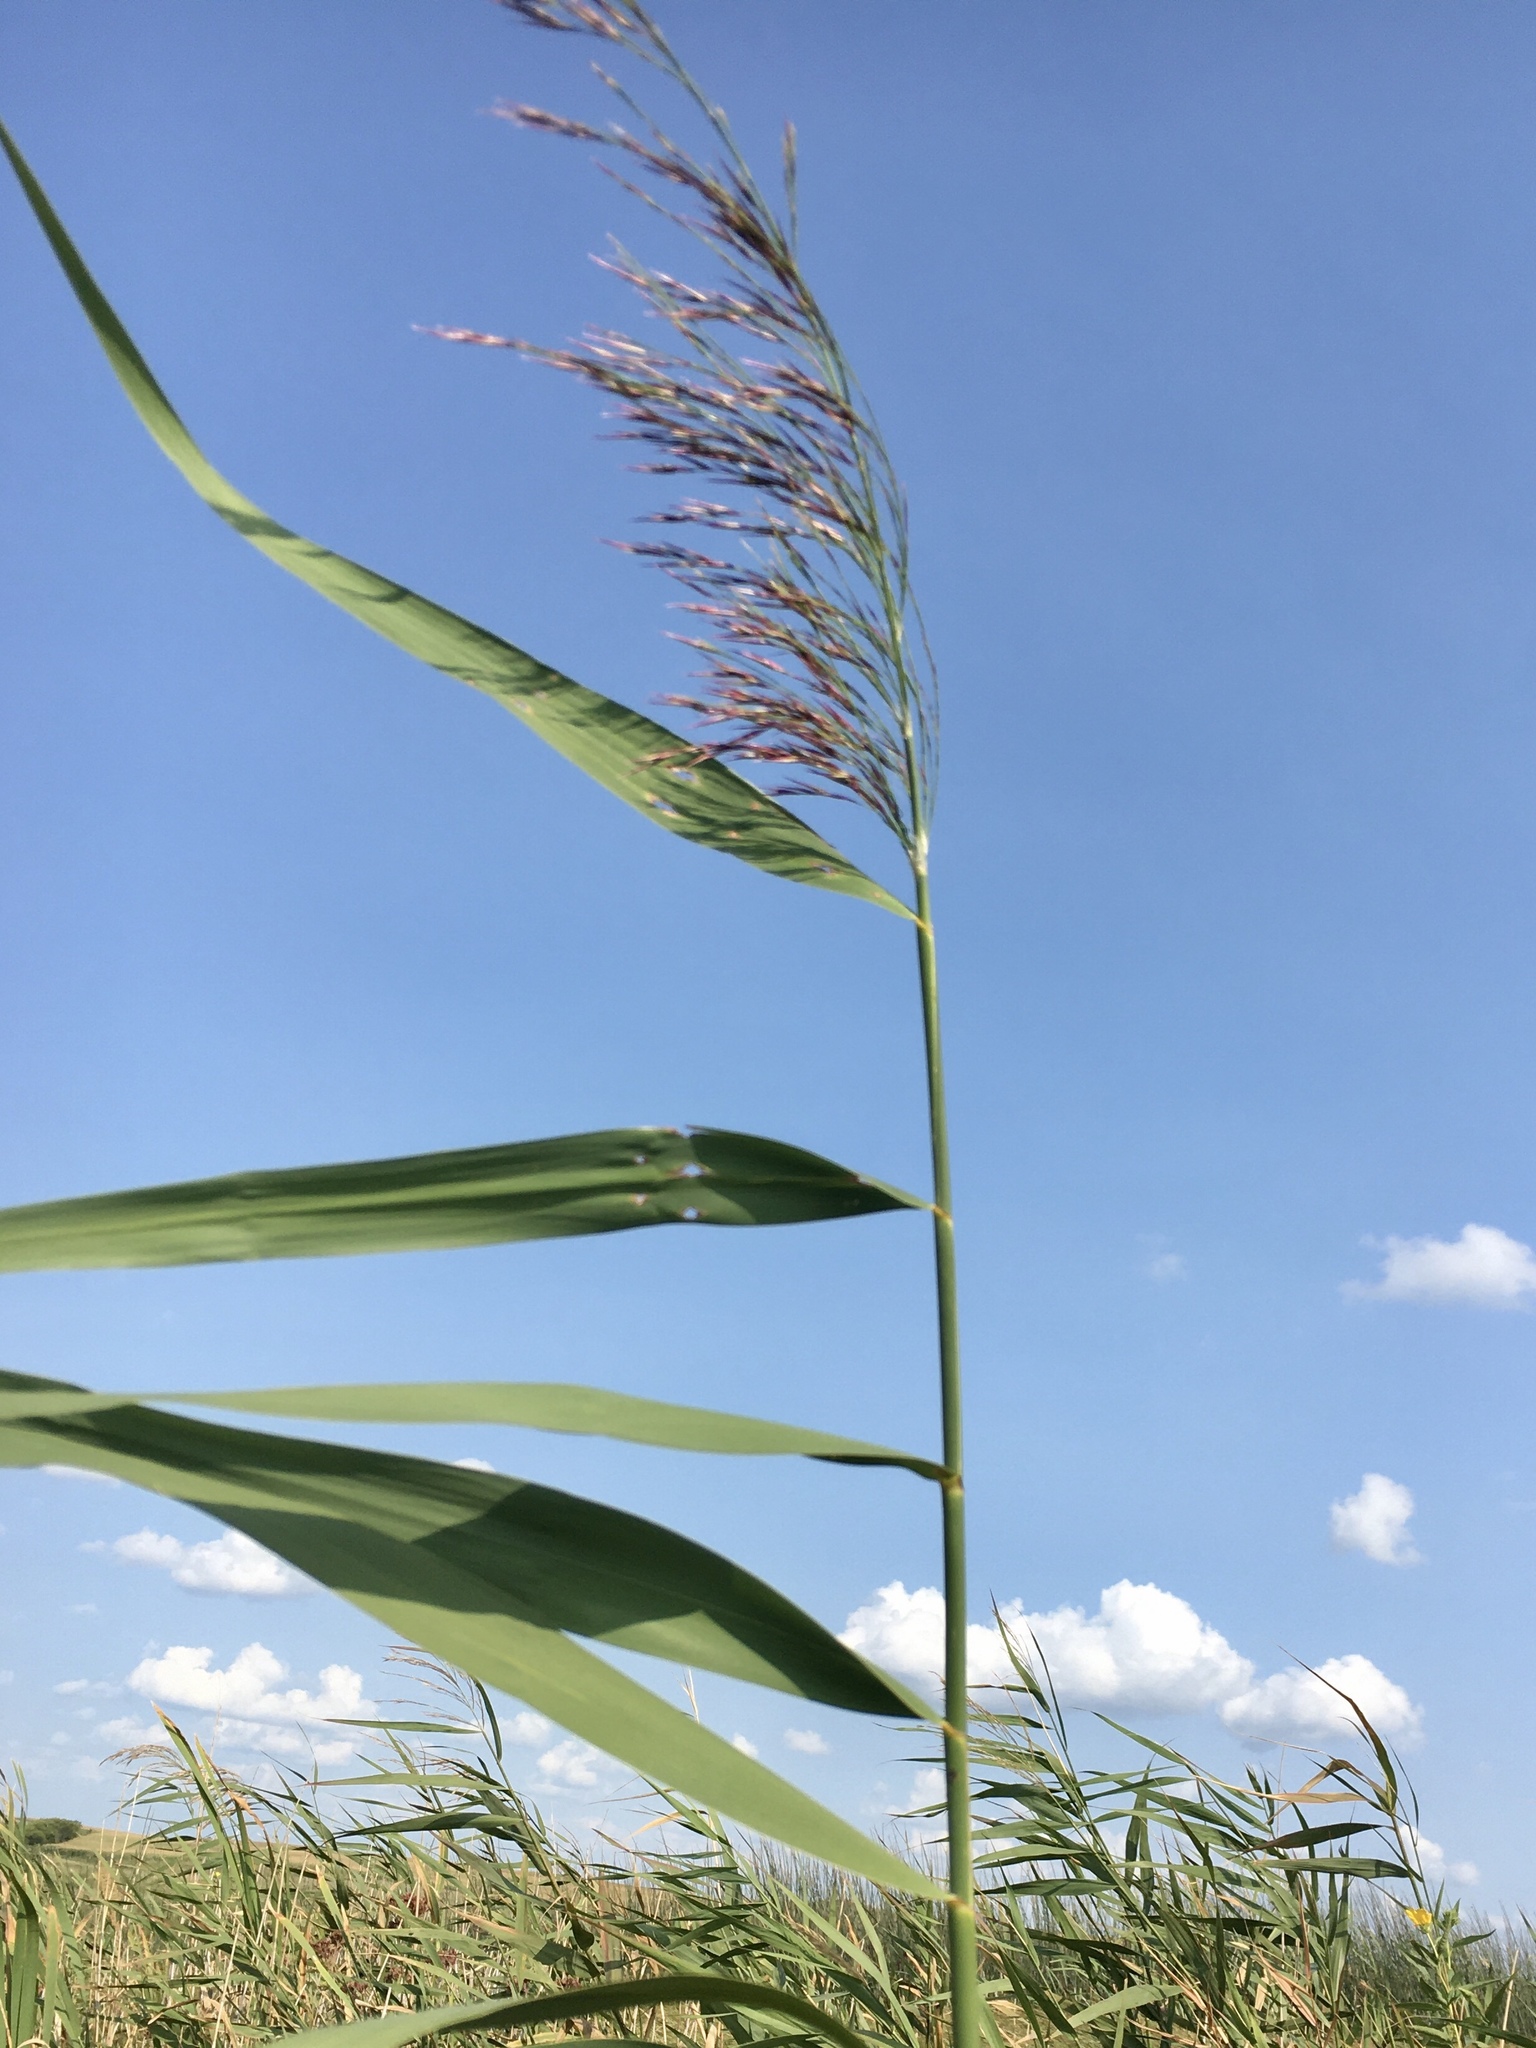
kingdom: Plantae
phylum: Tracheophyta
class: Liliopsida
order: Poales
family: Poaceae
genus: Phragmites
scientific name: Phragmites australis
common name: Common reed
